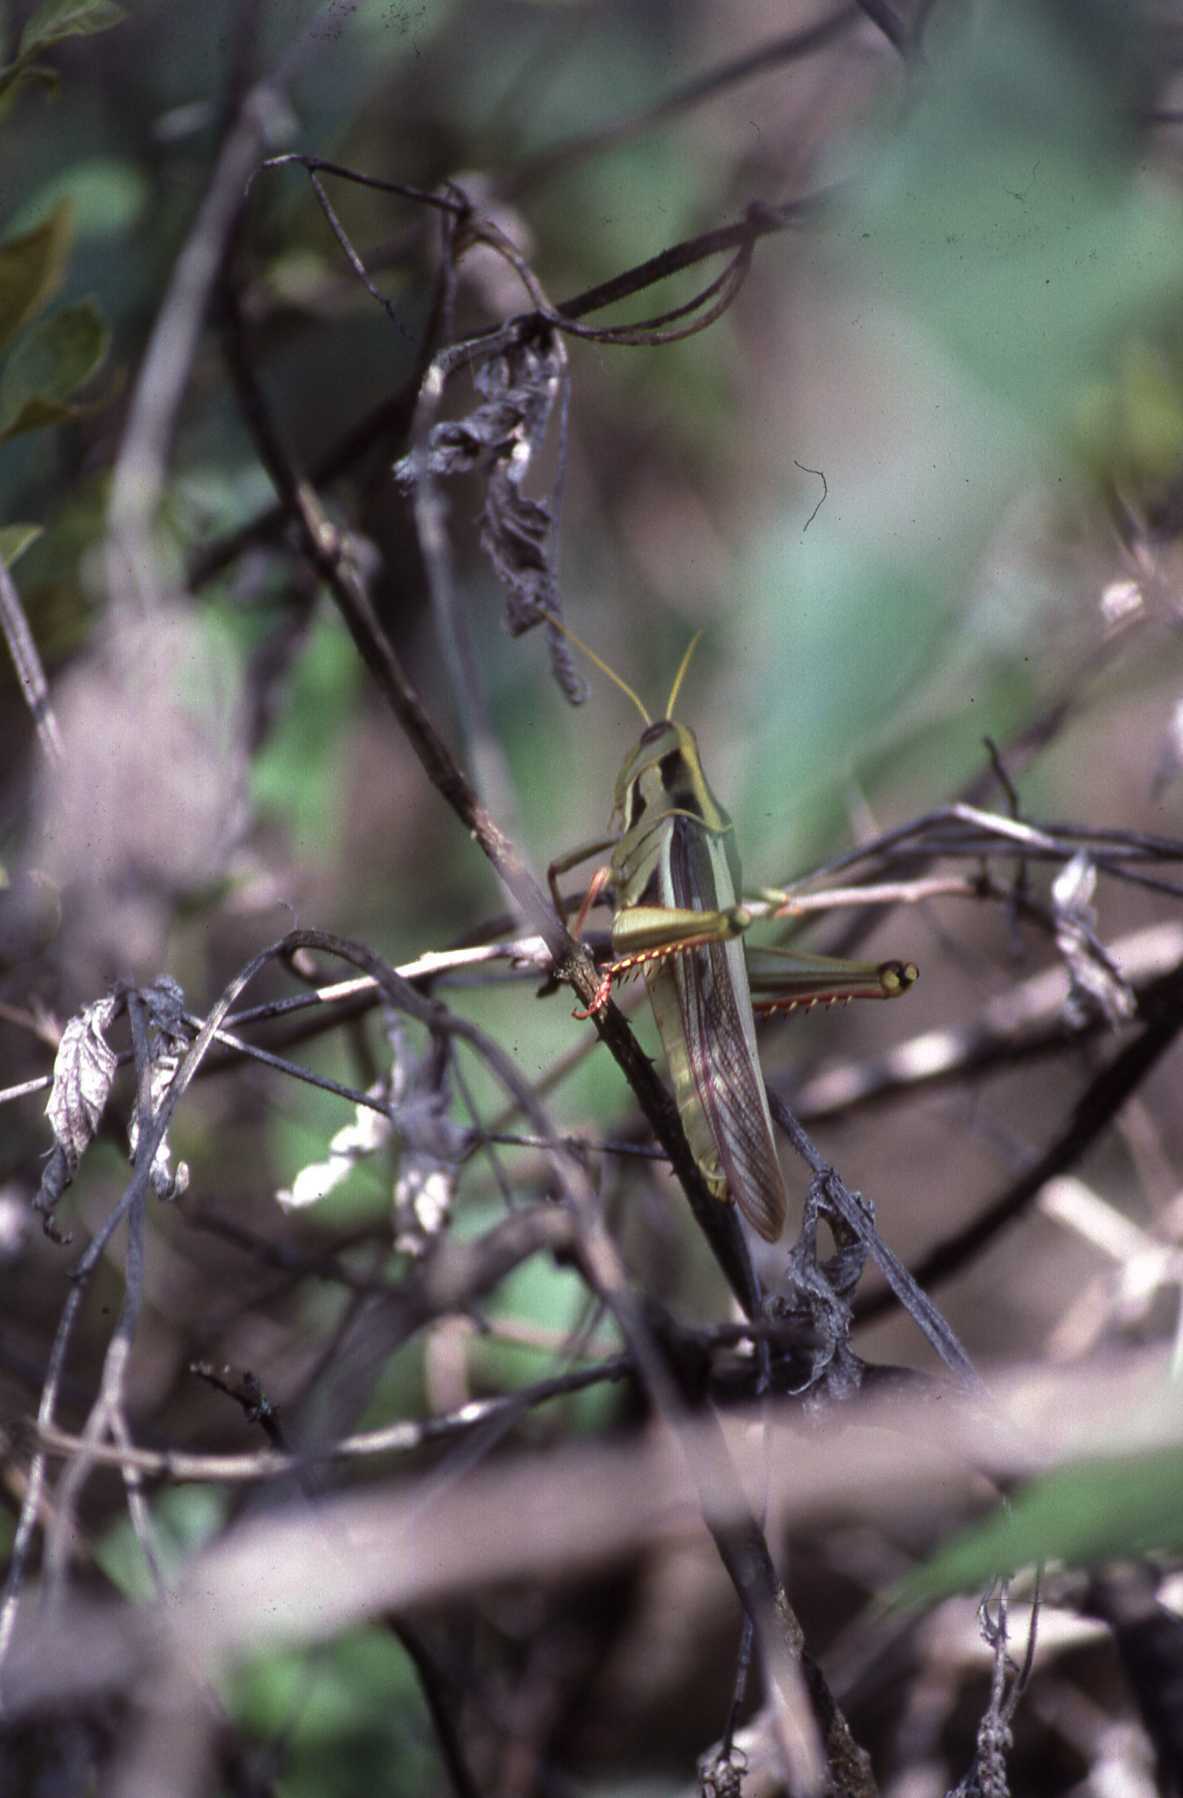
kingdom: Animalia
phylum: Arthropoda
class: Insecta
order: Orthoptera
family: Acrididae
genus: Cyrtacanthacris
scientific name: Cyrtacanthacris aeruginosa
